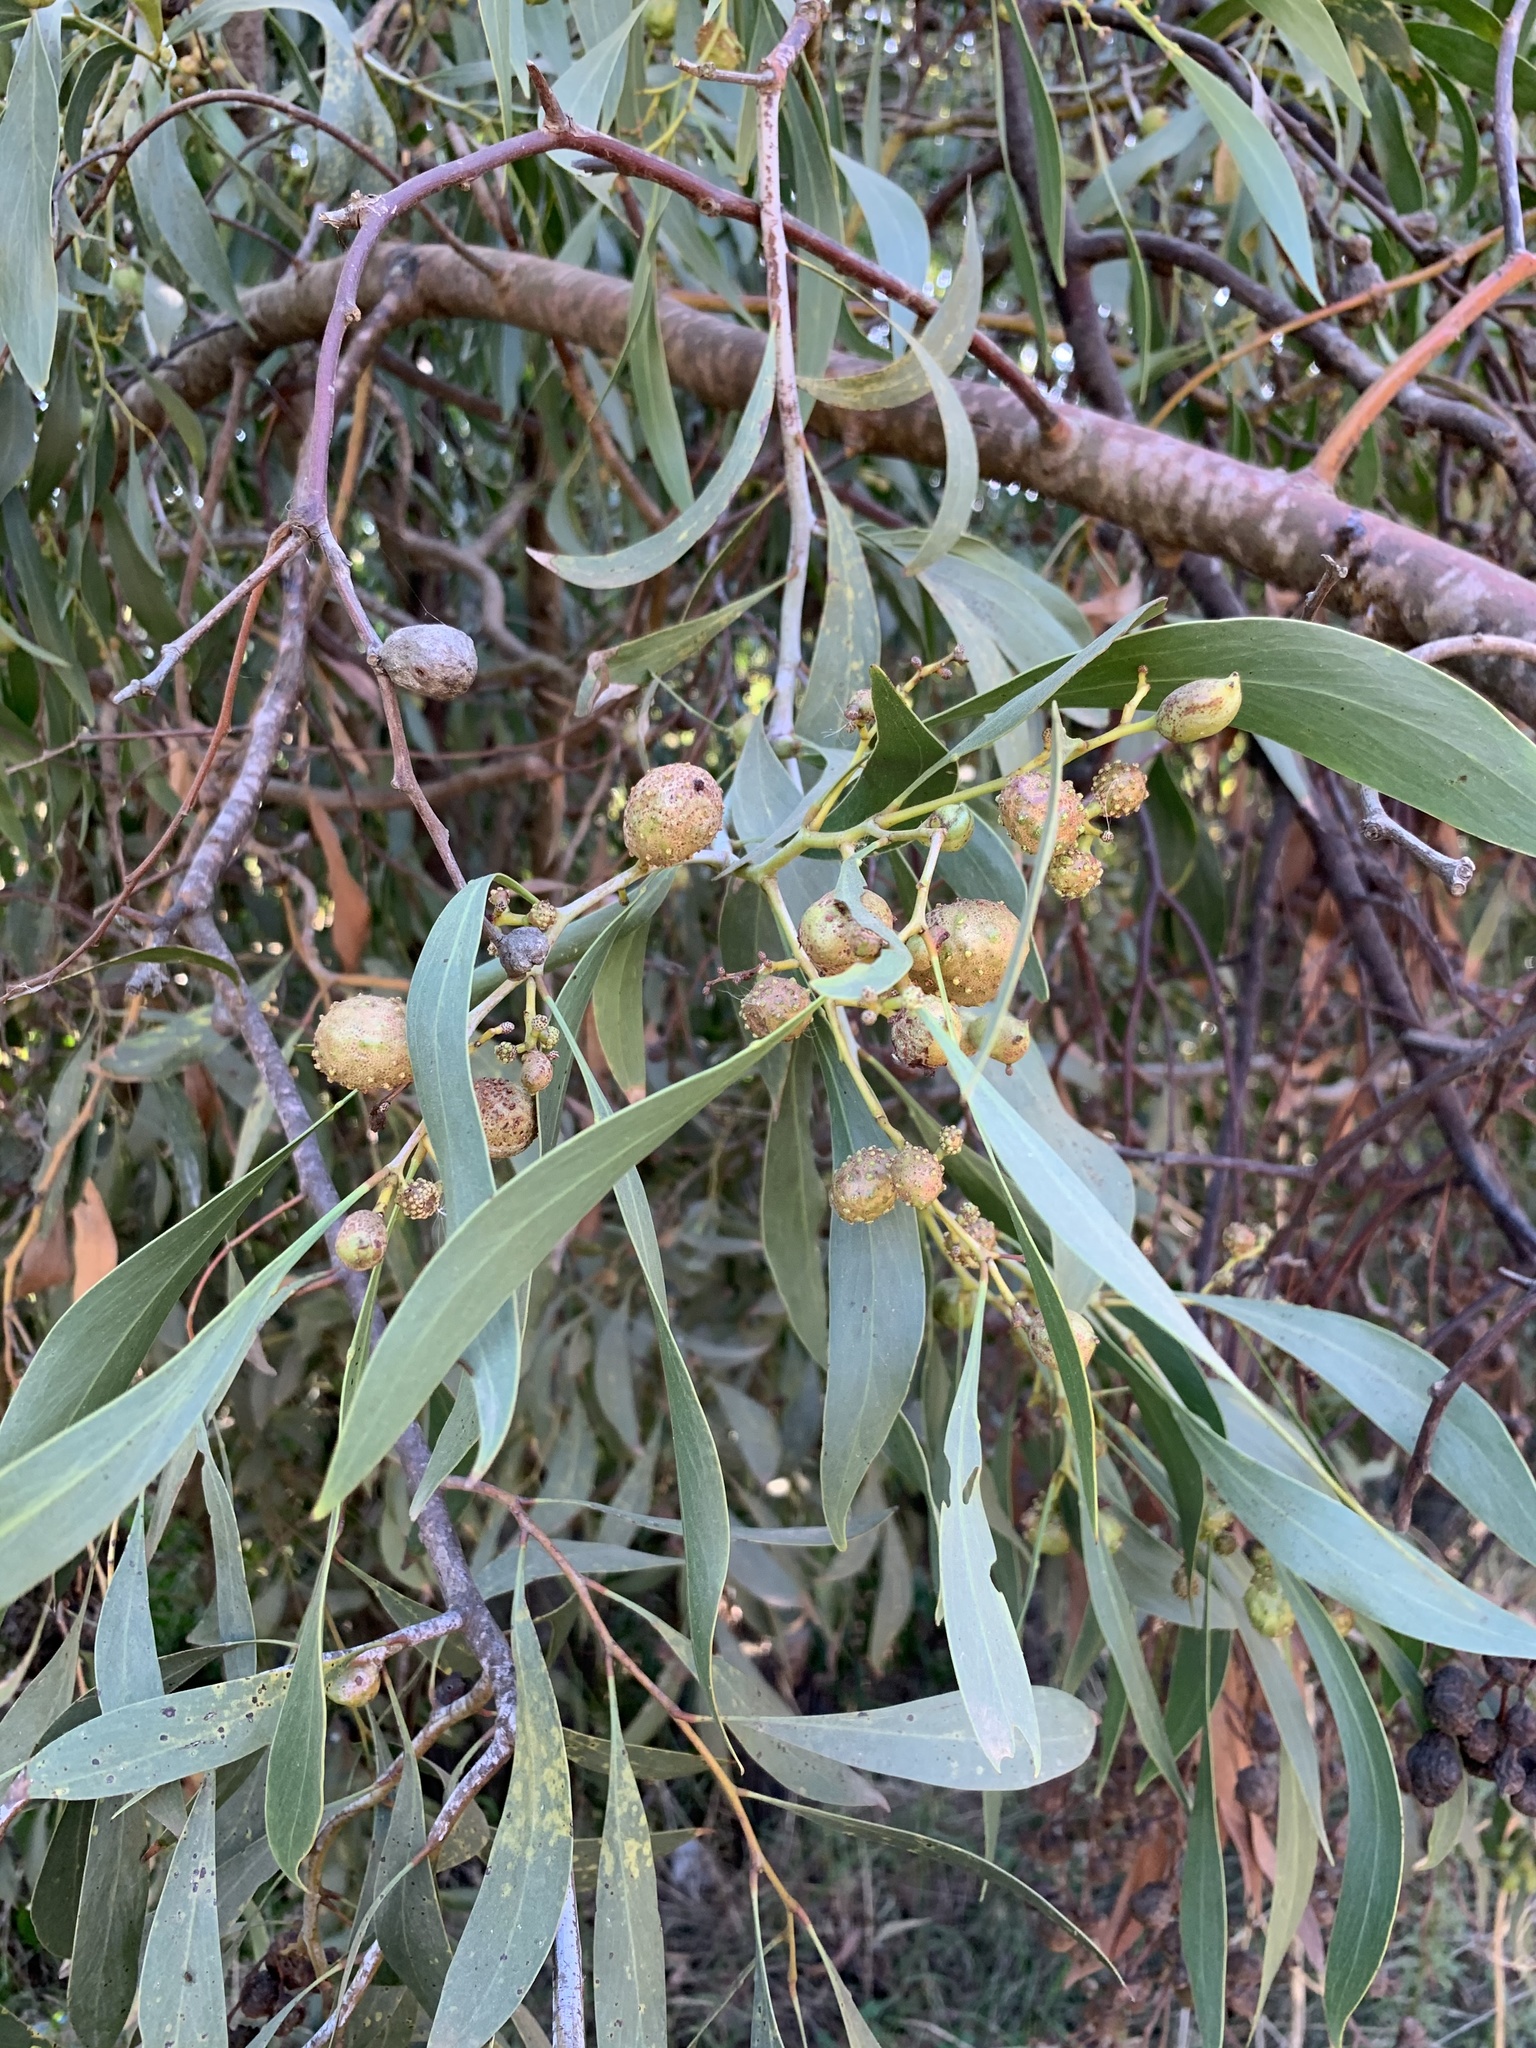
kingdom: Plantae
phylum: Tracheophyta
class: Magnoliopsida
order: Fabales
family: Fabaceae
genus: Acacia
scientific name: Acacia pycnantha
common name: Golden wattle
